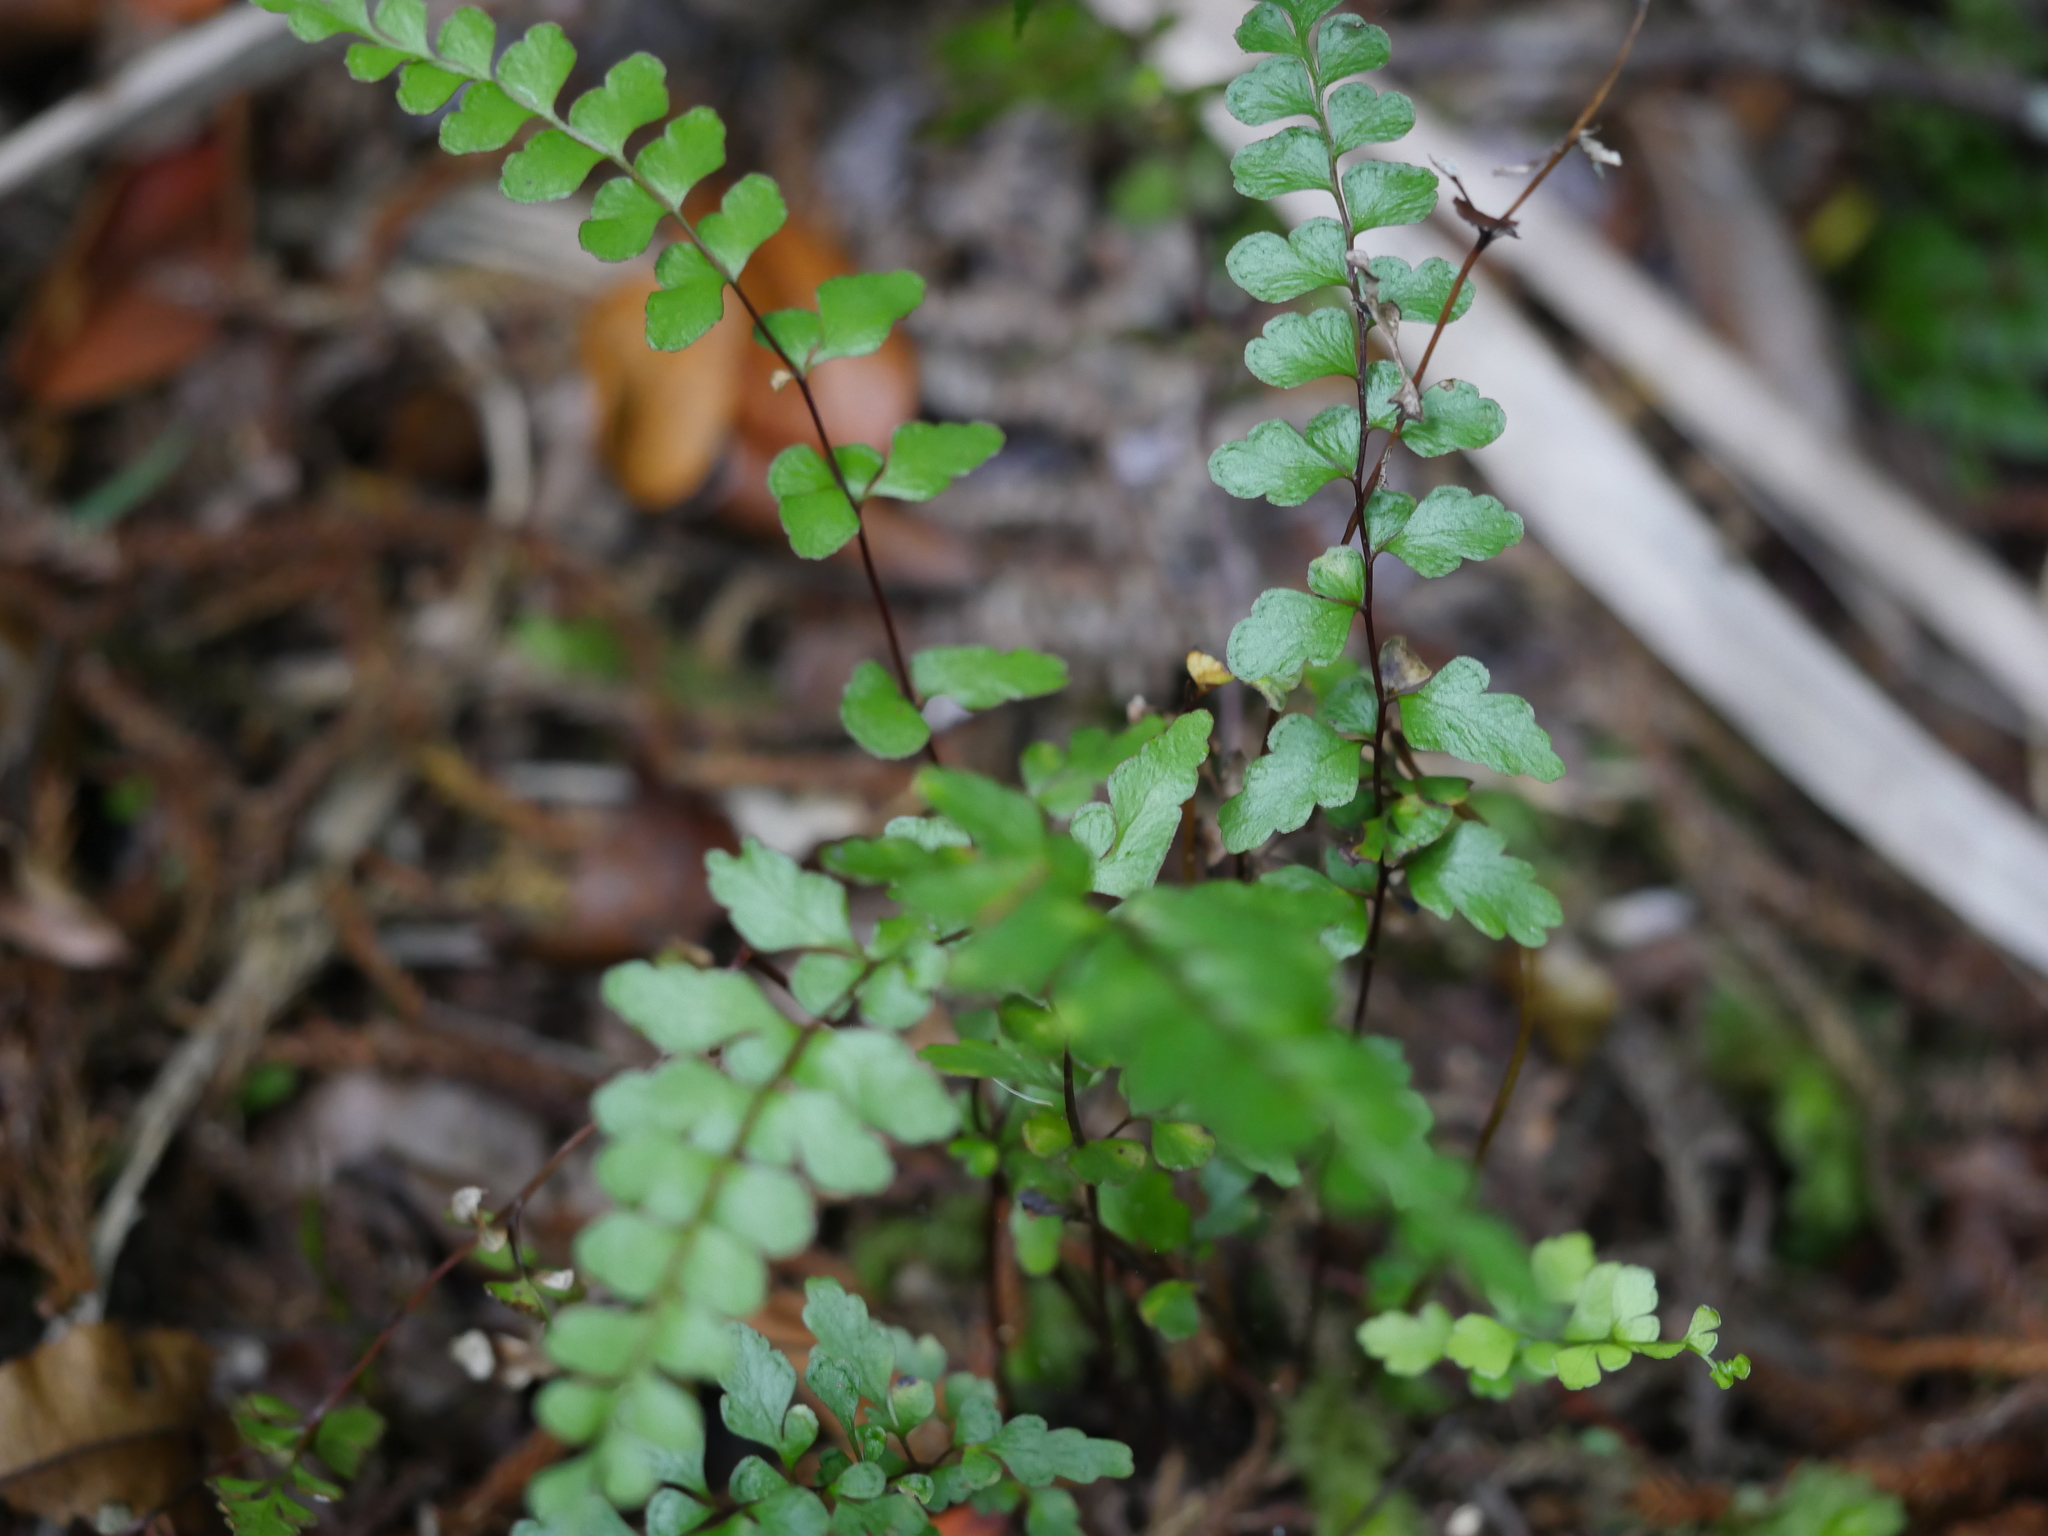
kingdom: Plantae
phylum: Tracheophyta
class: Polypodiopsida
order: Polypodiales
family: Lindsaeaceae
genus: Lindsaea
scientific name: Lindsaea trichomanoides
